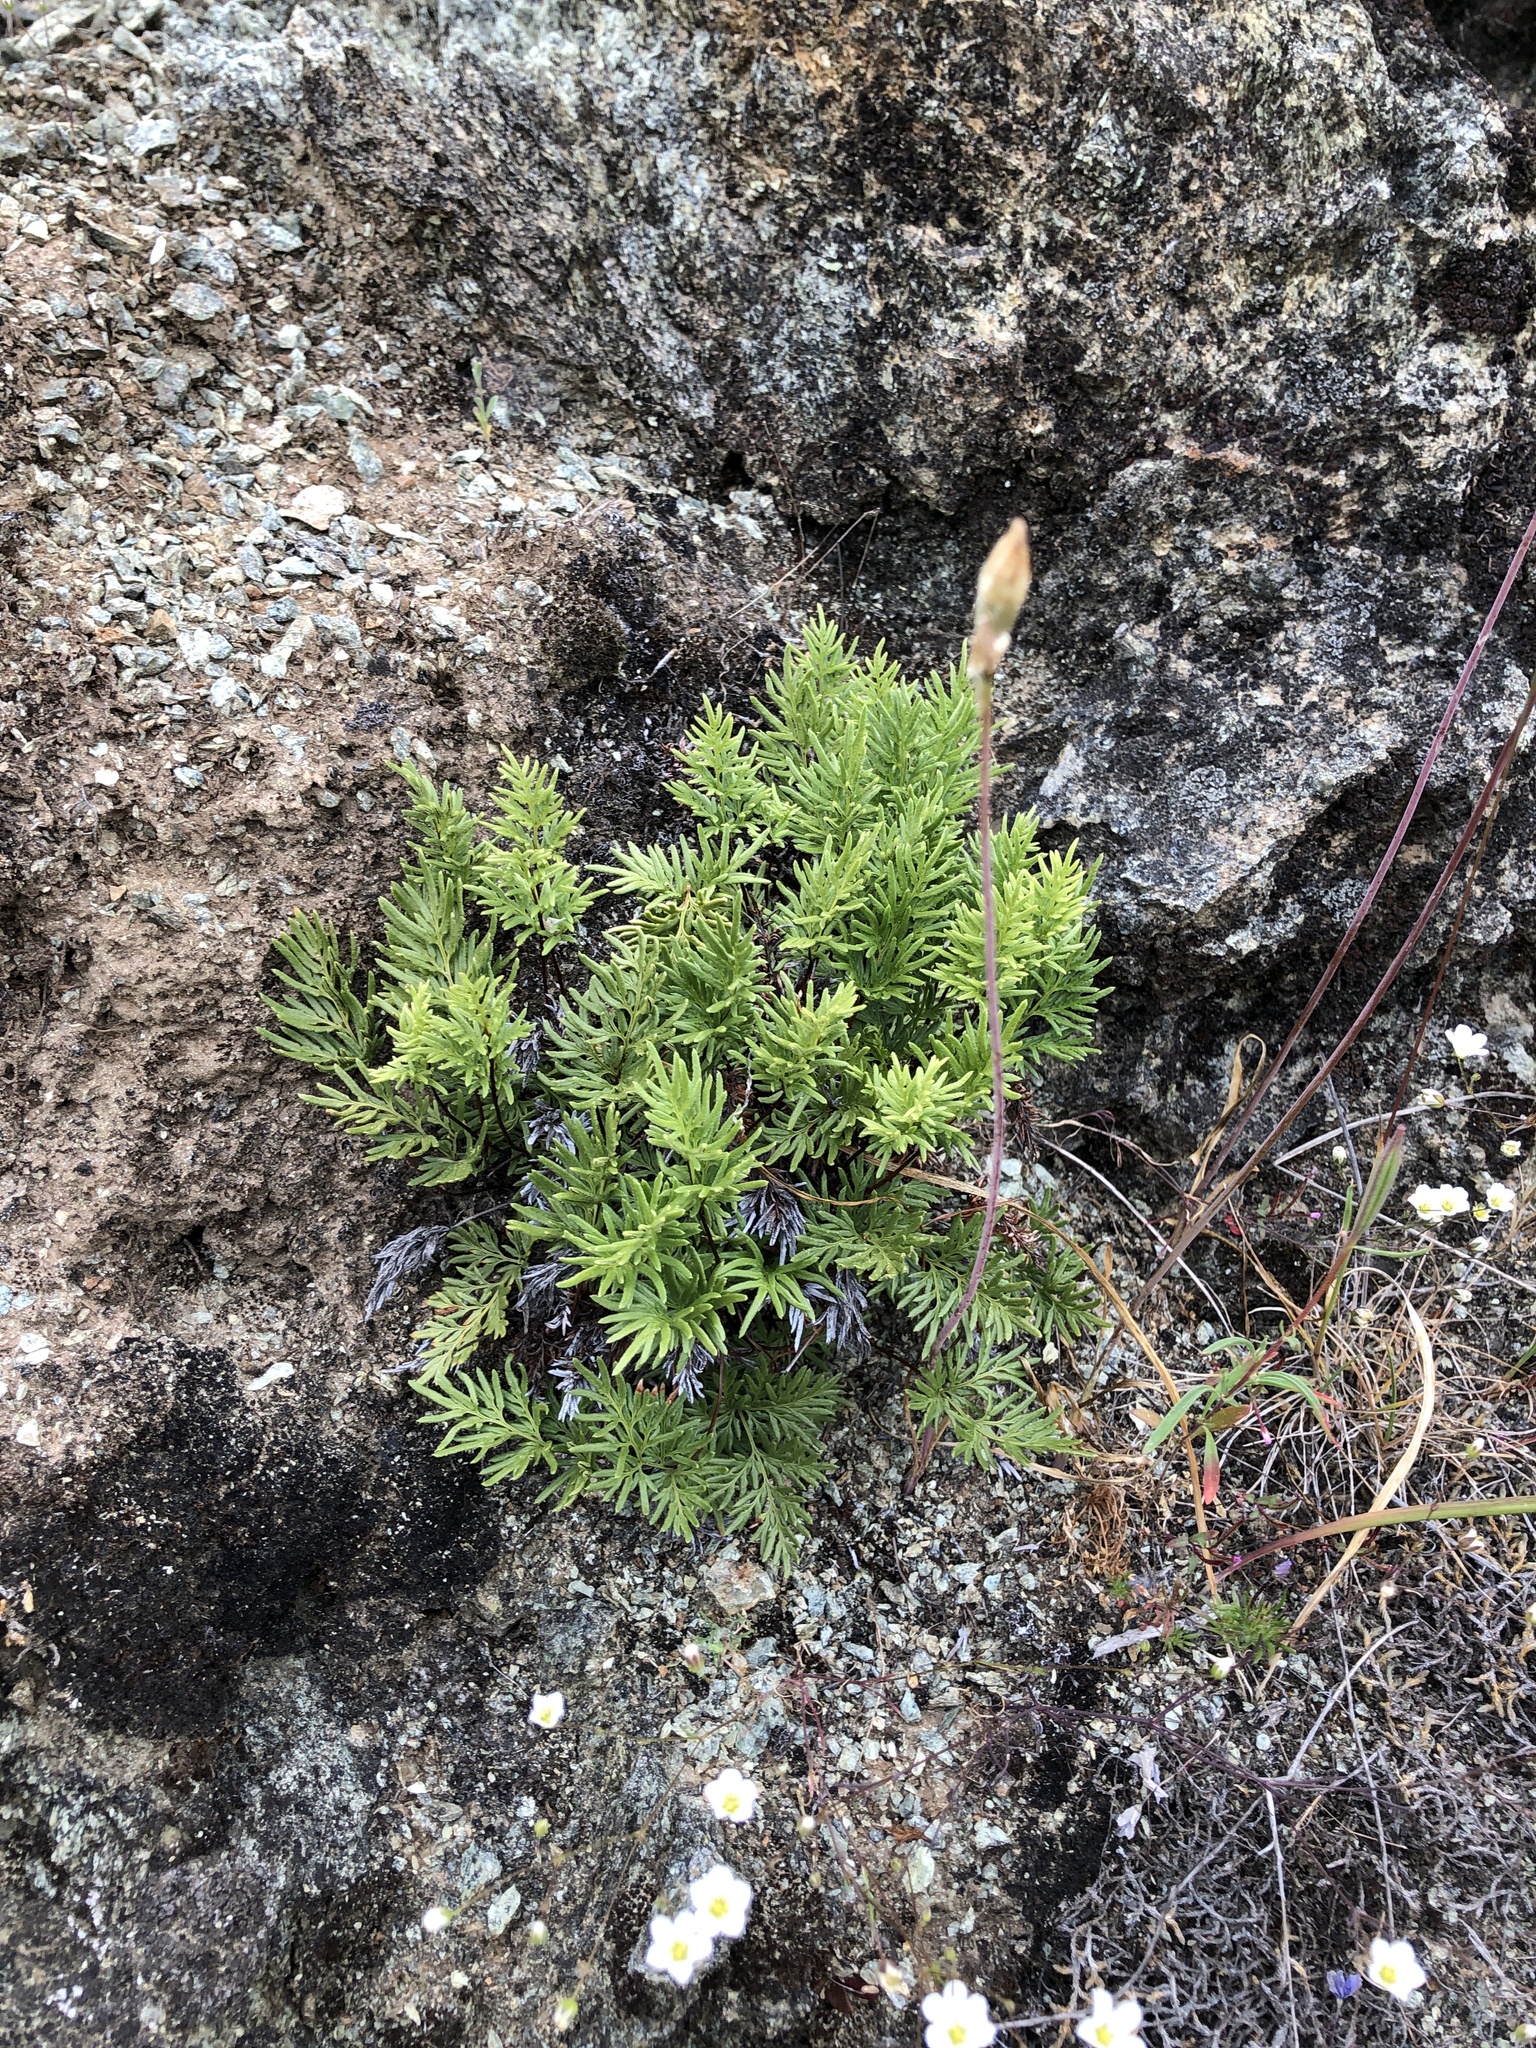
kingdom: Plantae
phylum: Tracheophyta
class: Polypodiopsida
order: Polypodiales
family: Pteridaceae
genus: Aspidotis
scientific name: Aspidotis densa
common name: Indian's dream
